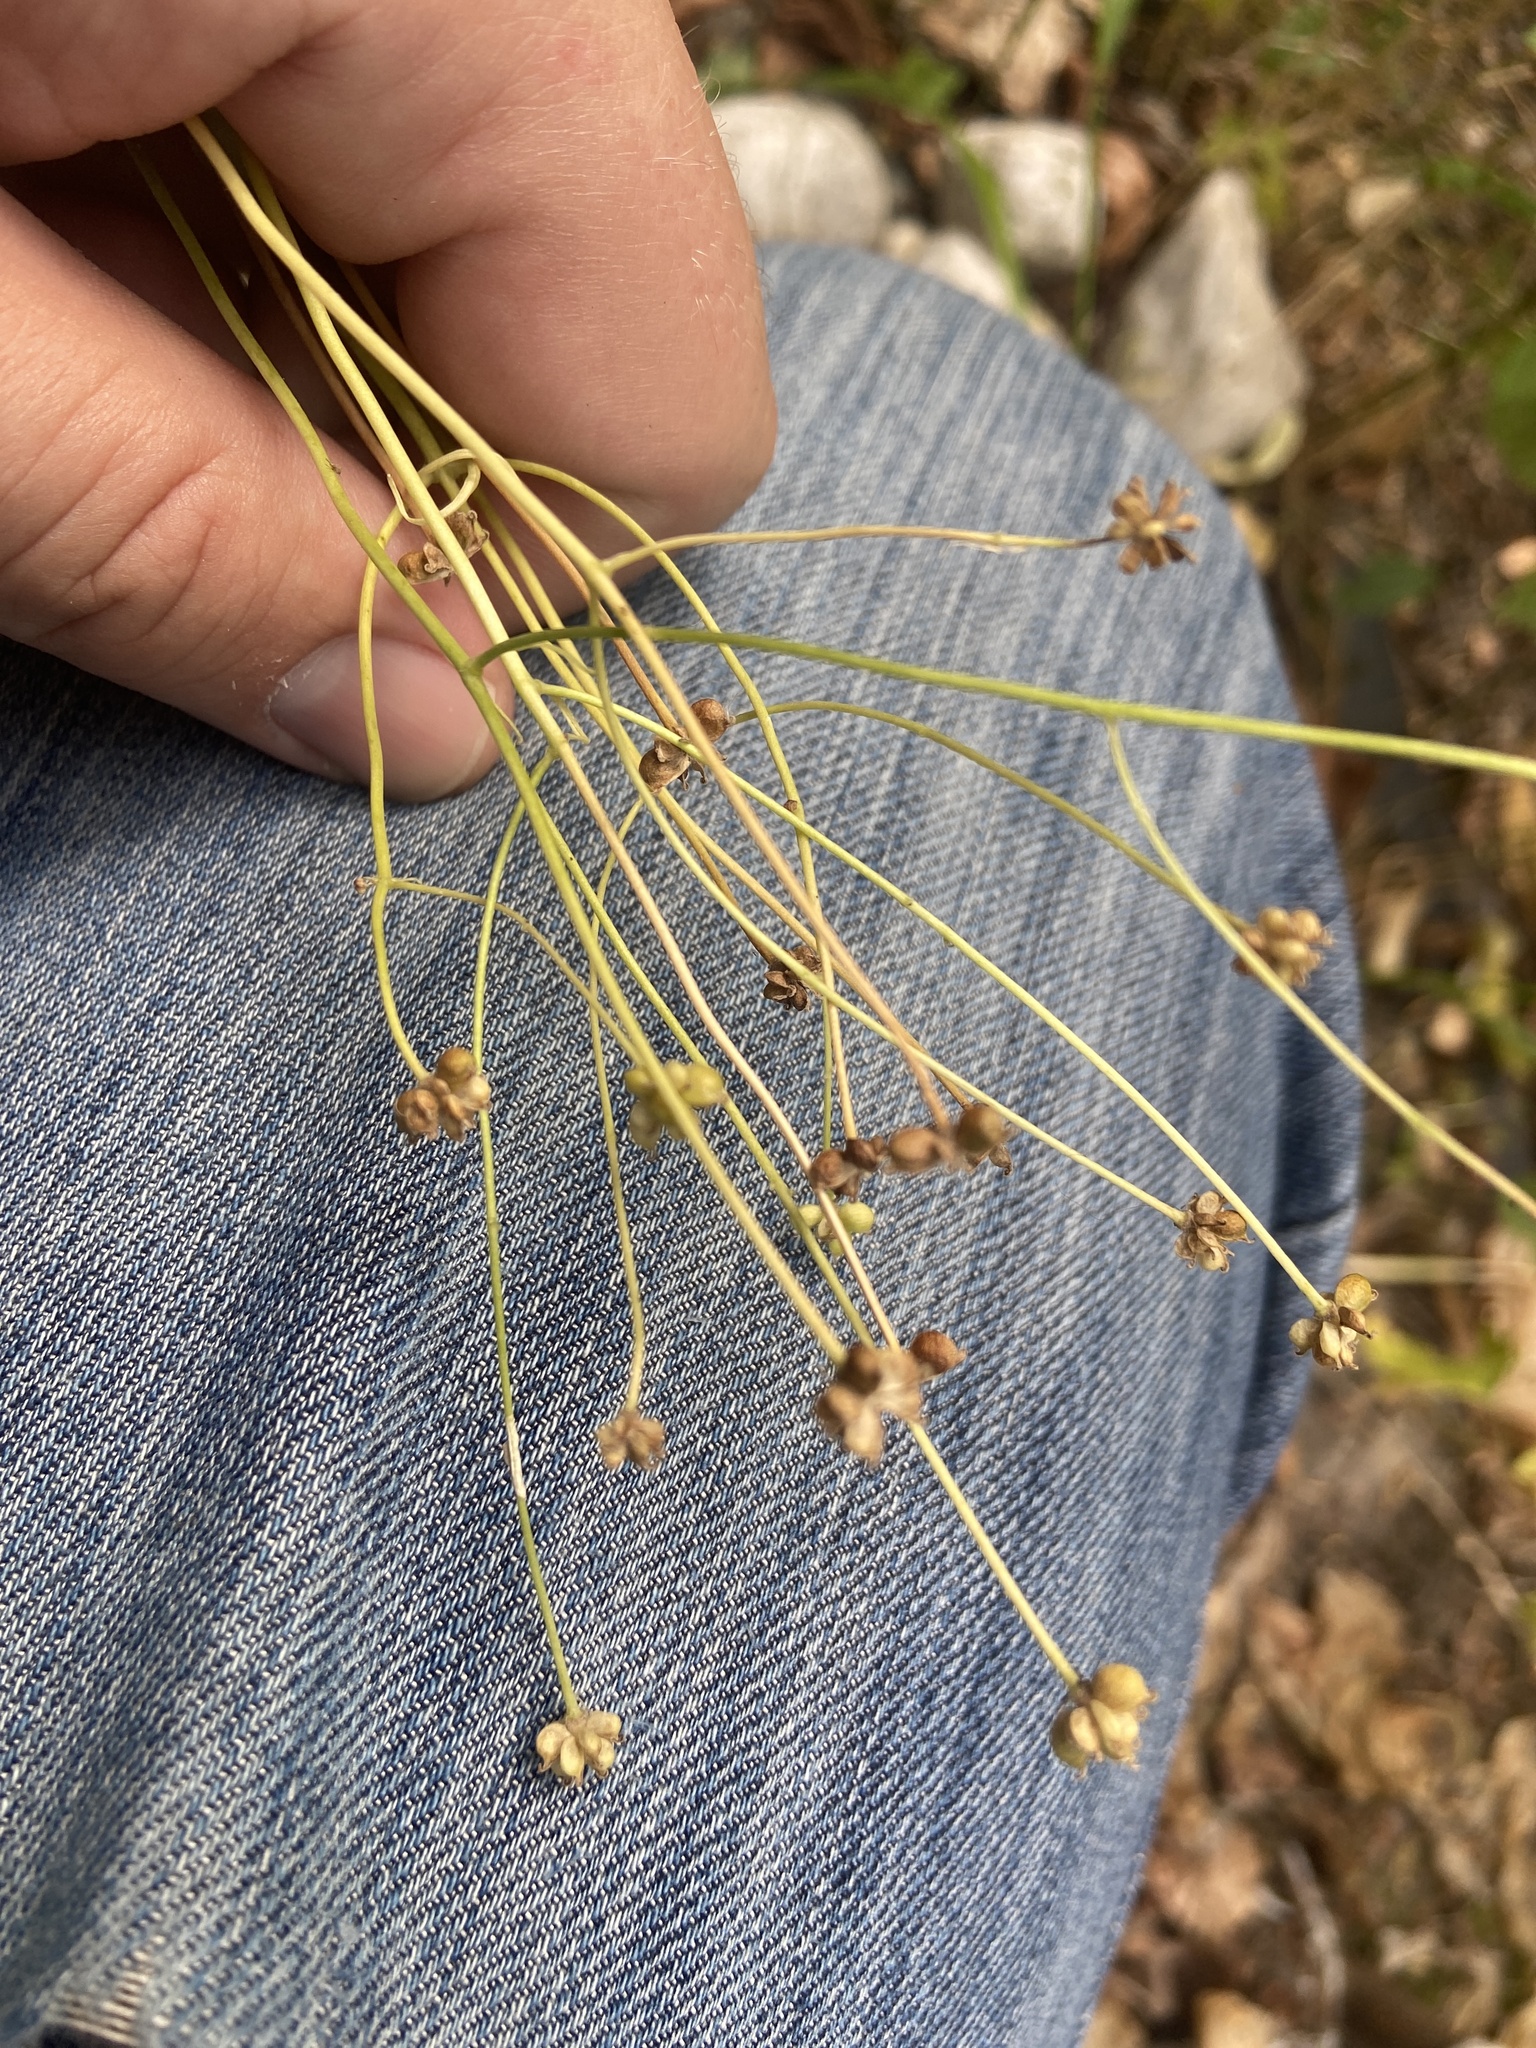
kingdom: Plantae
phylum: Tracheophyta
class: Magnoliopsida
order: Ranunculales
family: Ranunculaceae
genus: Ranunculus
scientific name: Ranunculus platanifolius
